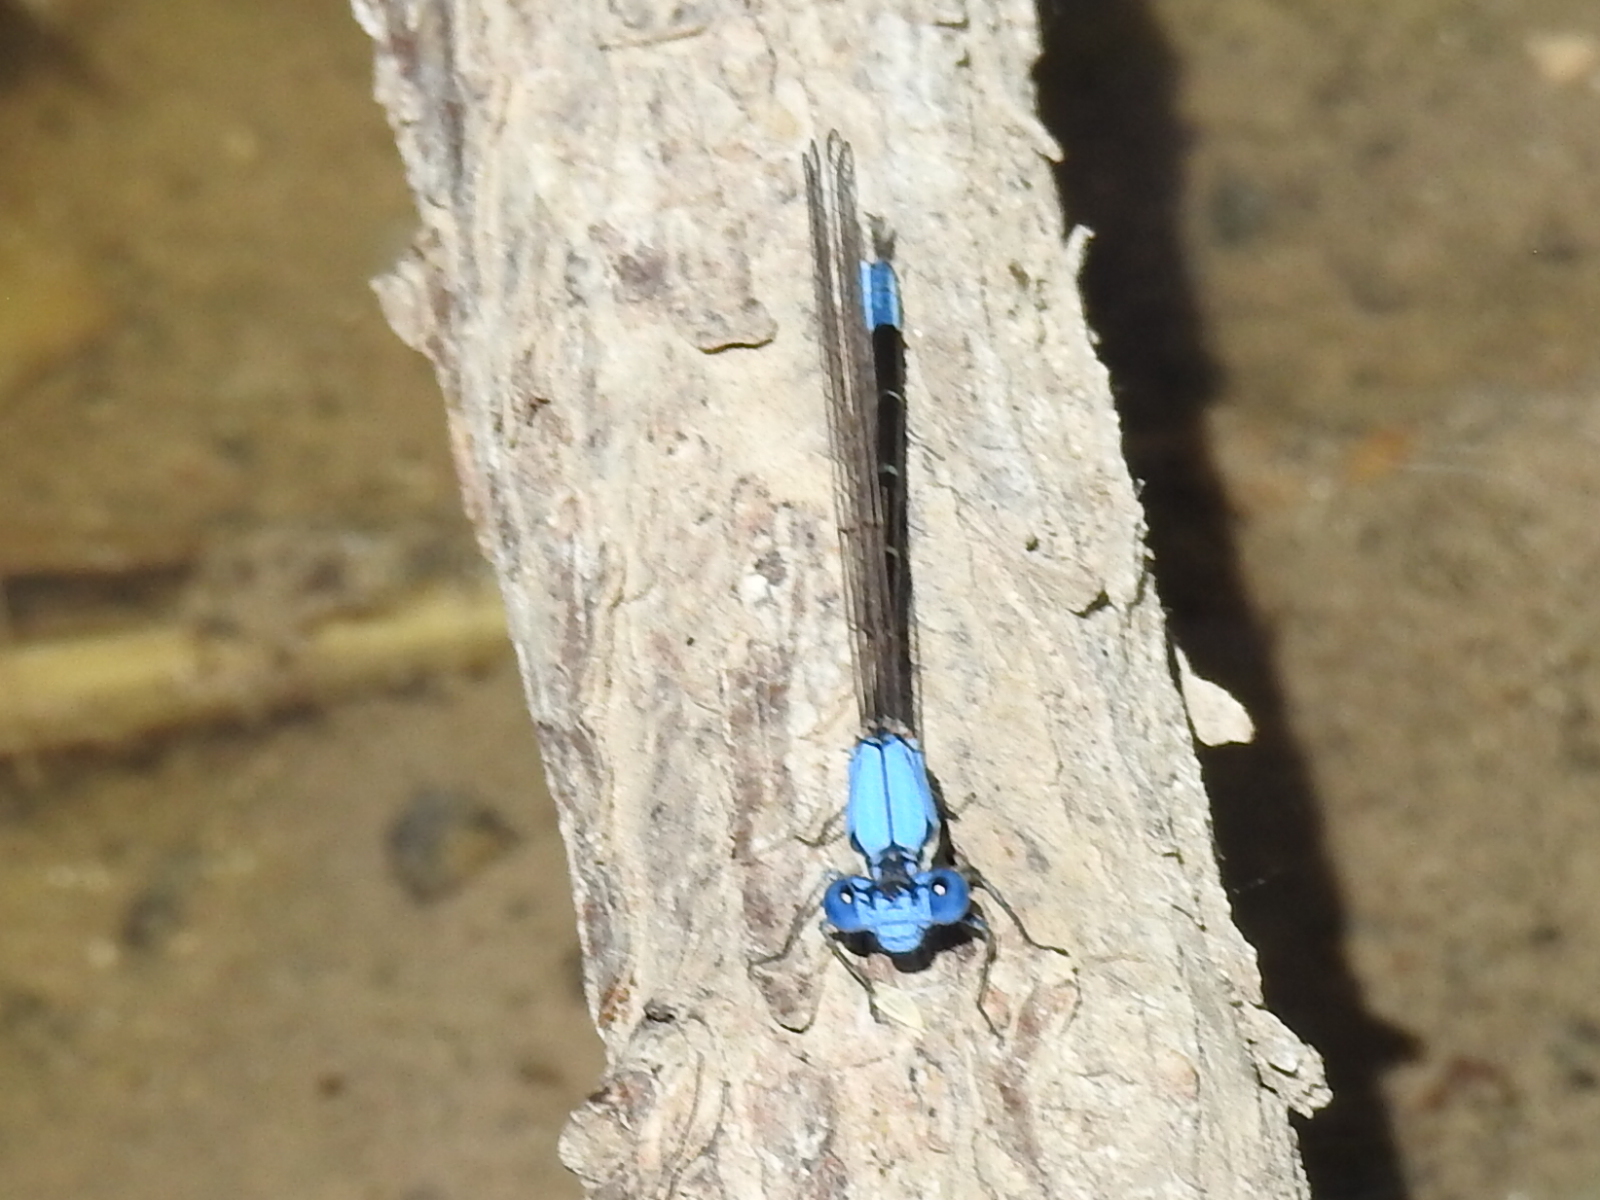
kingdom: Animalia
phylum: Arthropoda
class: Insecta
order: Odonata
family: Coenagrionidae
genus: Argia
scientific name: Argia apicalis
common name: Blue-fronted dancer
